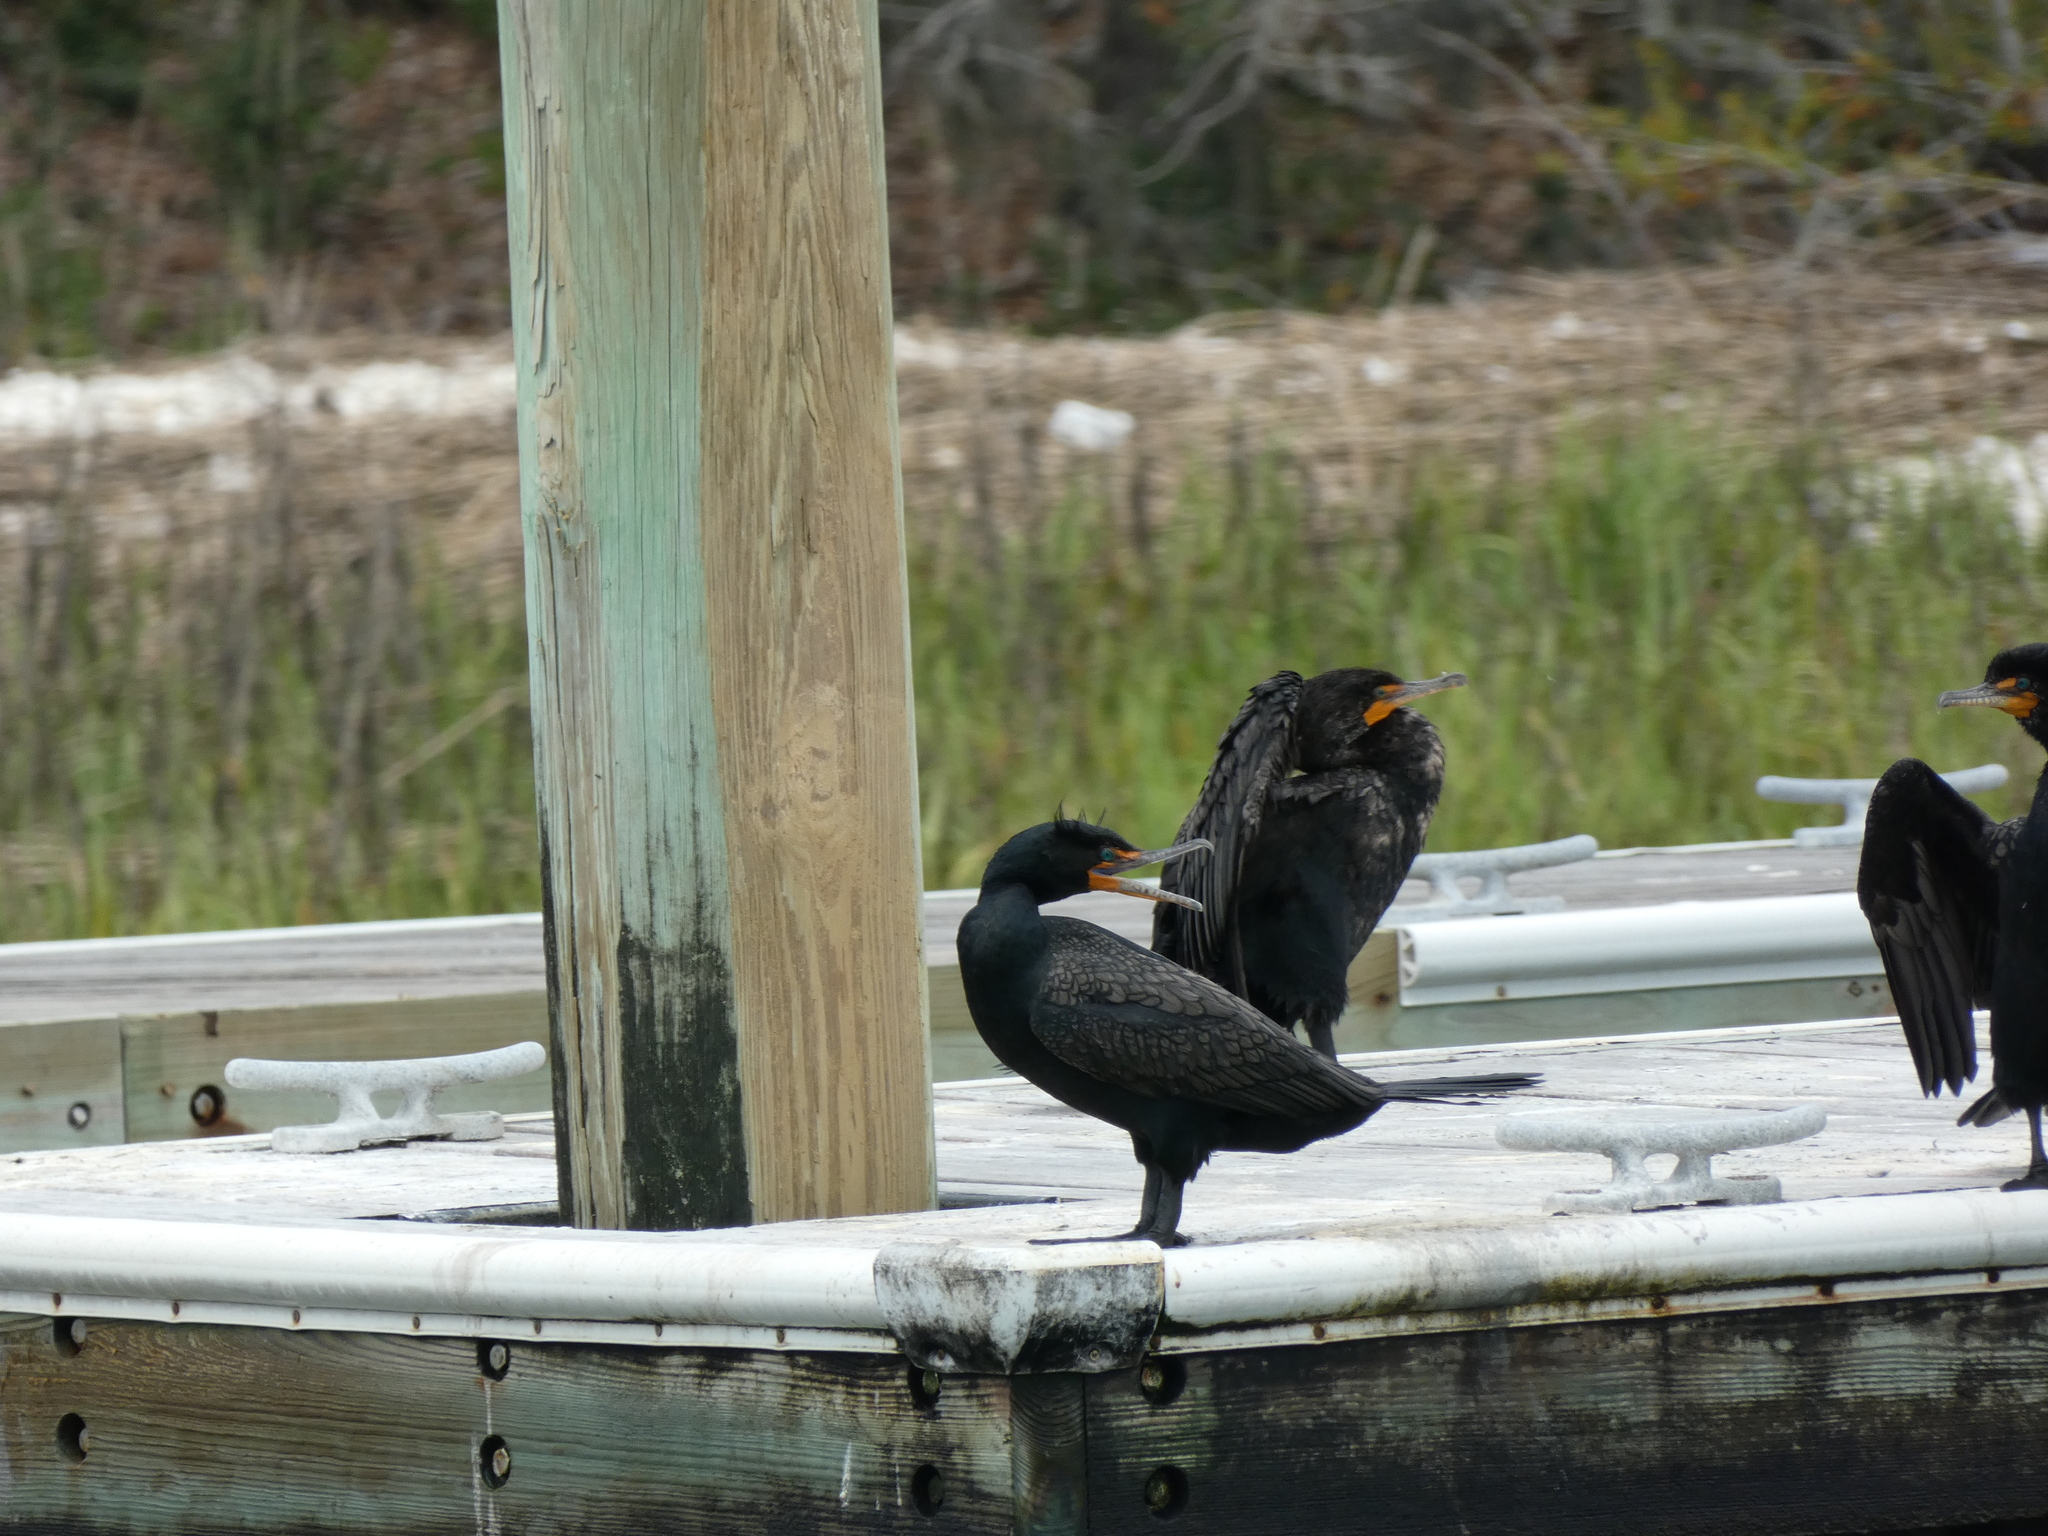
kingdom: Animalia
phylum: Chordata
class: Aves
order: Suliformes
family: Phalacrocoracidae
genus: Phalacrocorax
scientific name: Phalacrocorax auritus
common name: Double-crested cormorant
